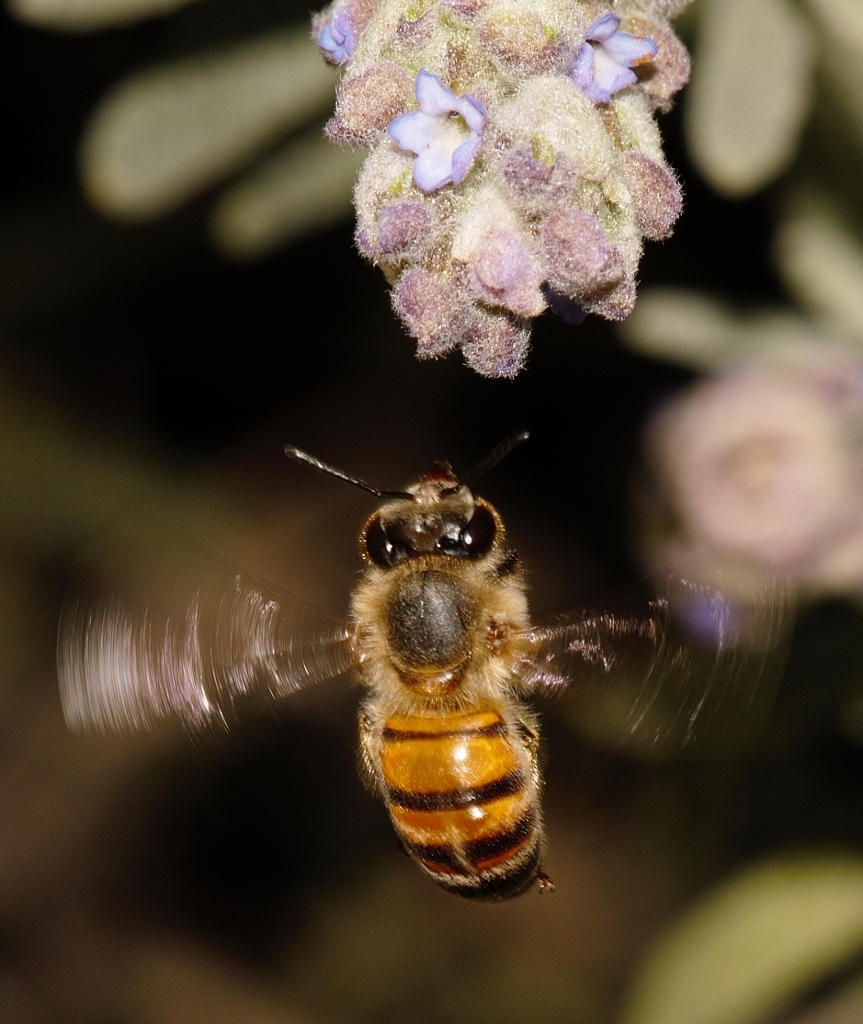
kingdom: Animalia
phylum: Arthropoda
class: Insecta
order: Hymenoptera
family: Apidae
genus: Apis
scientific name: Apis mellifera
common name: Honey bee
